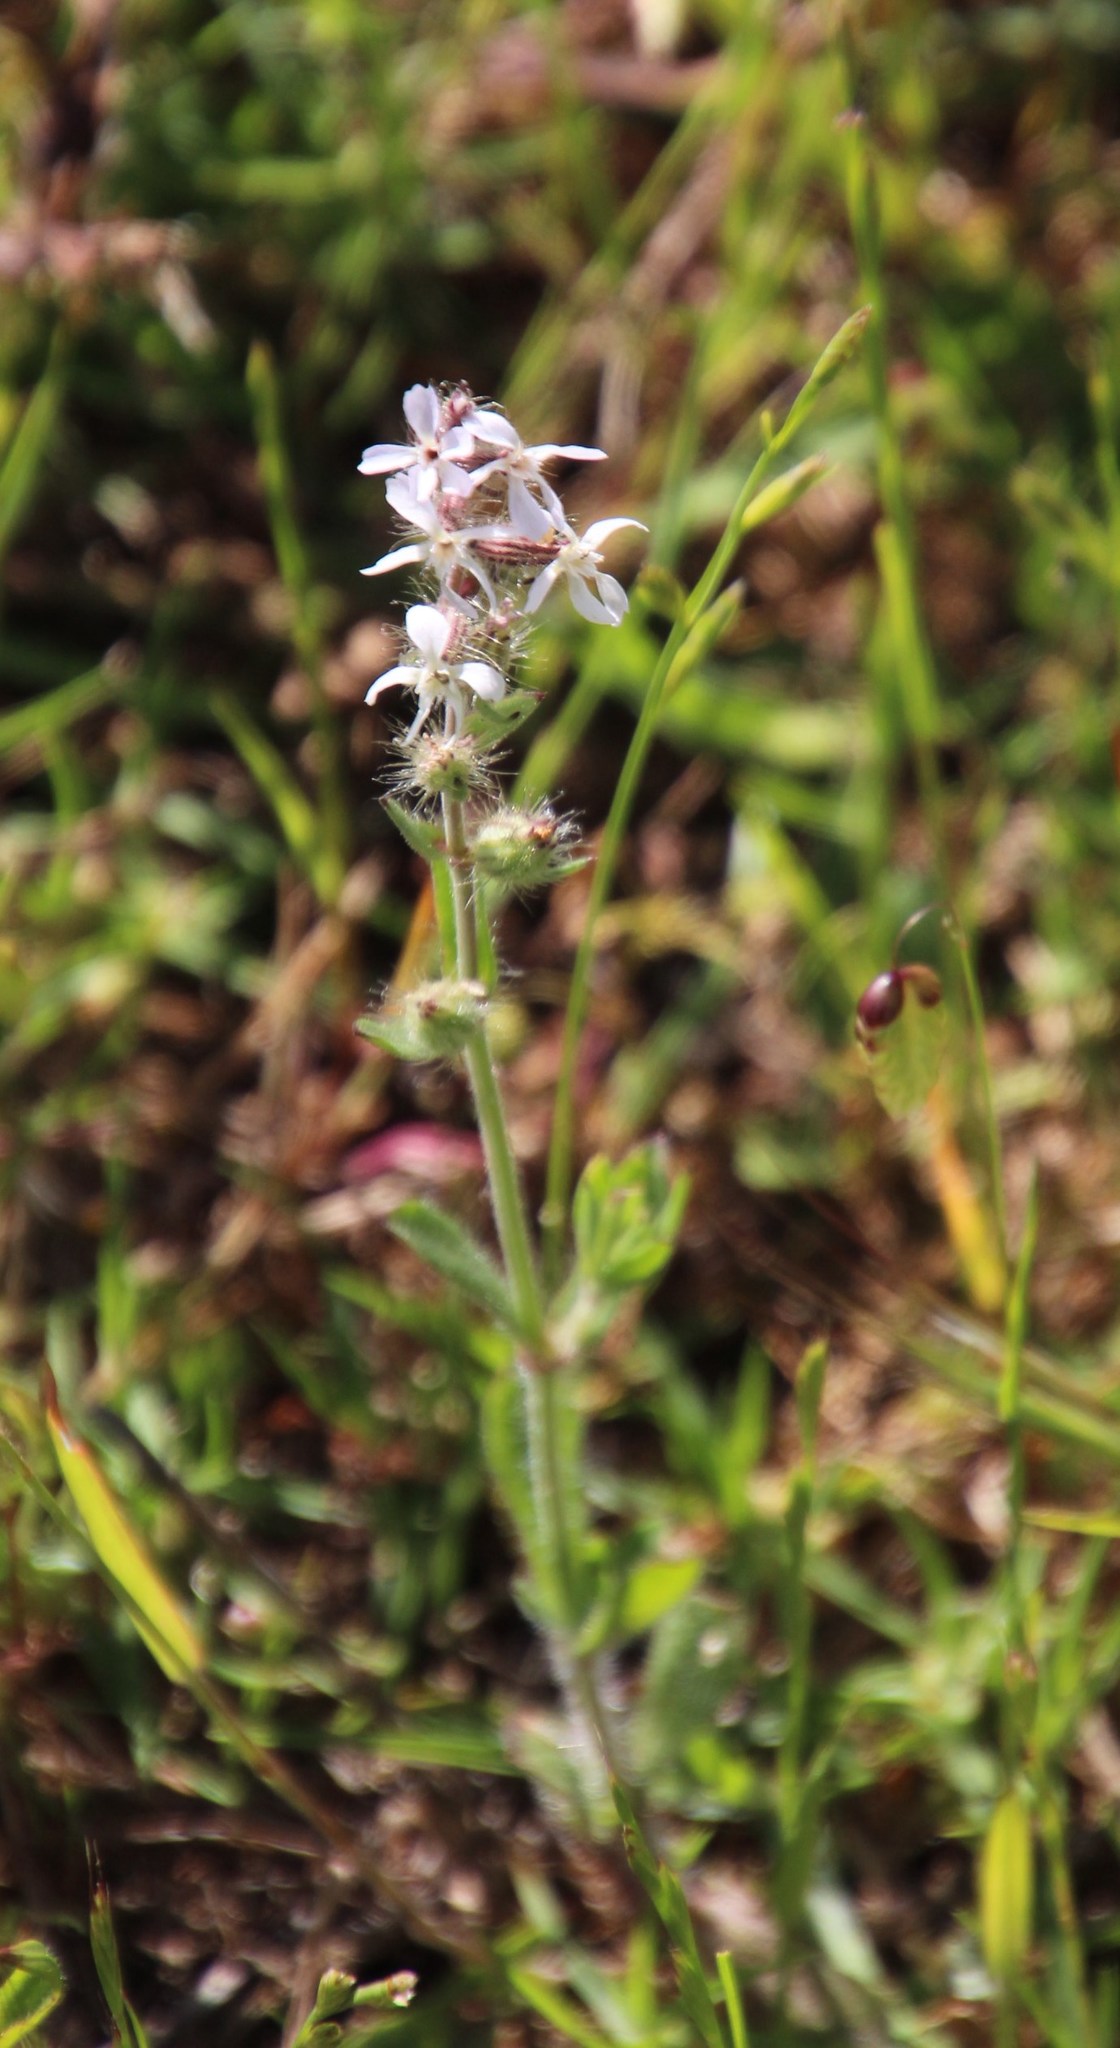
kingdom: Plantae
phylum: Tracheophyta
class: Magnoliopsida
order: Caryophyllales
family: Caryophyllaceae
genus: Silene
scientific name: Silene gallica
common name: Small-flowered catchfly
